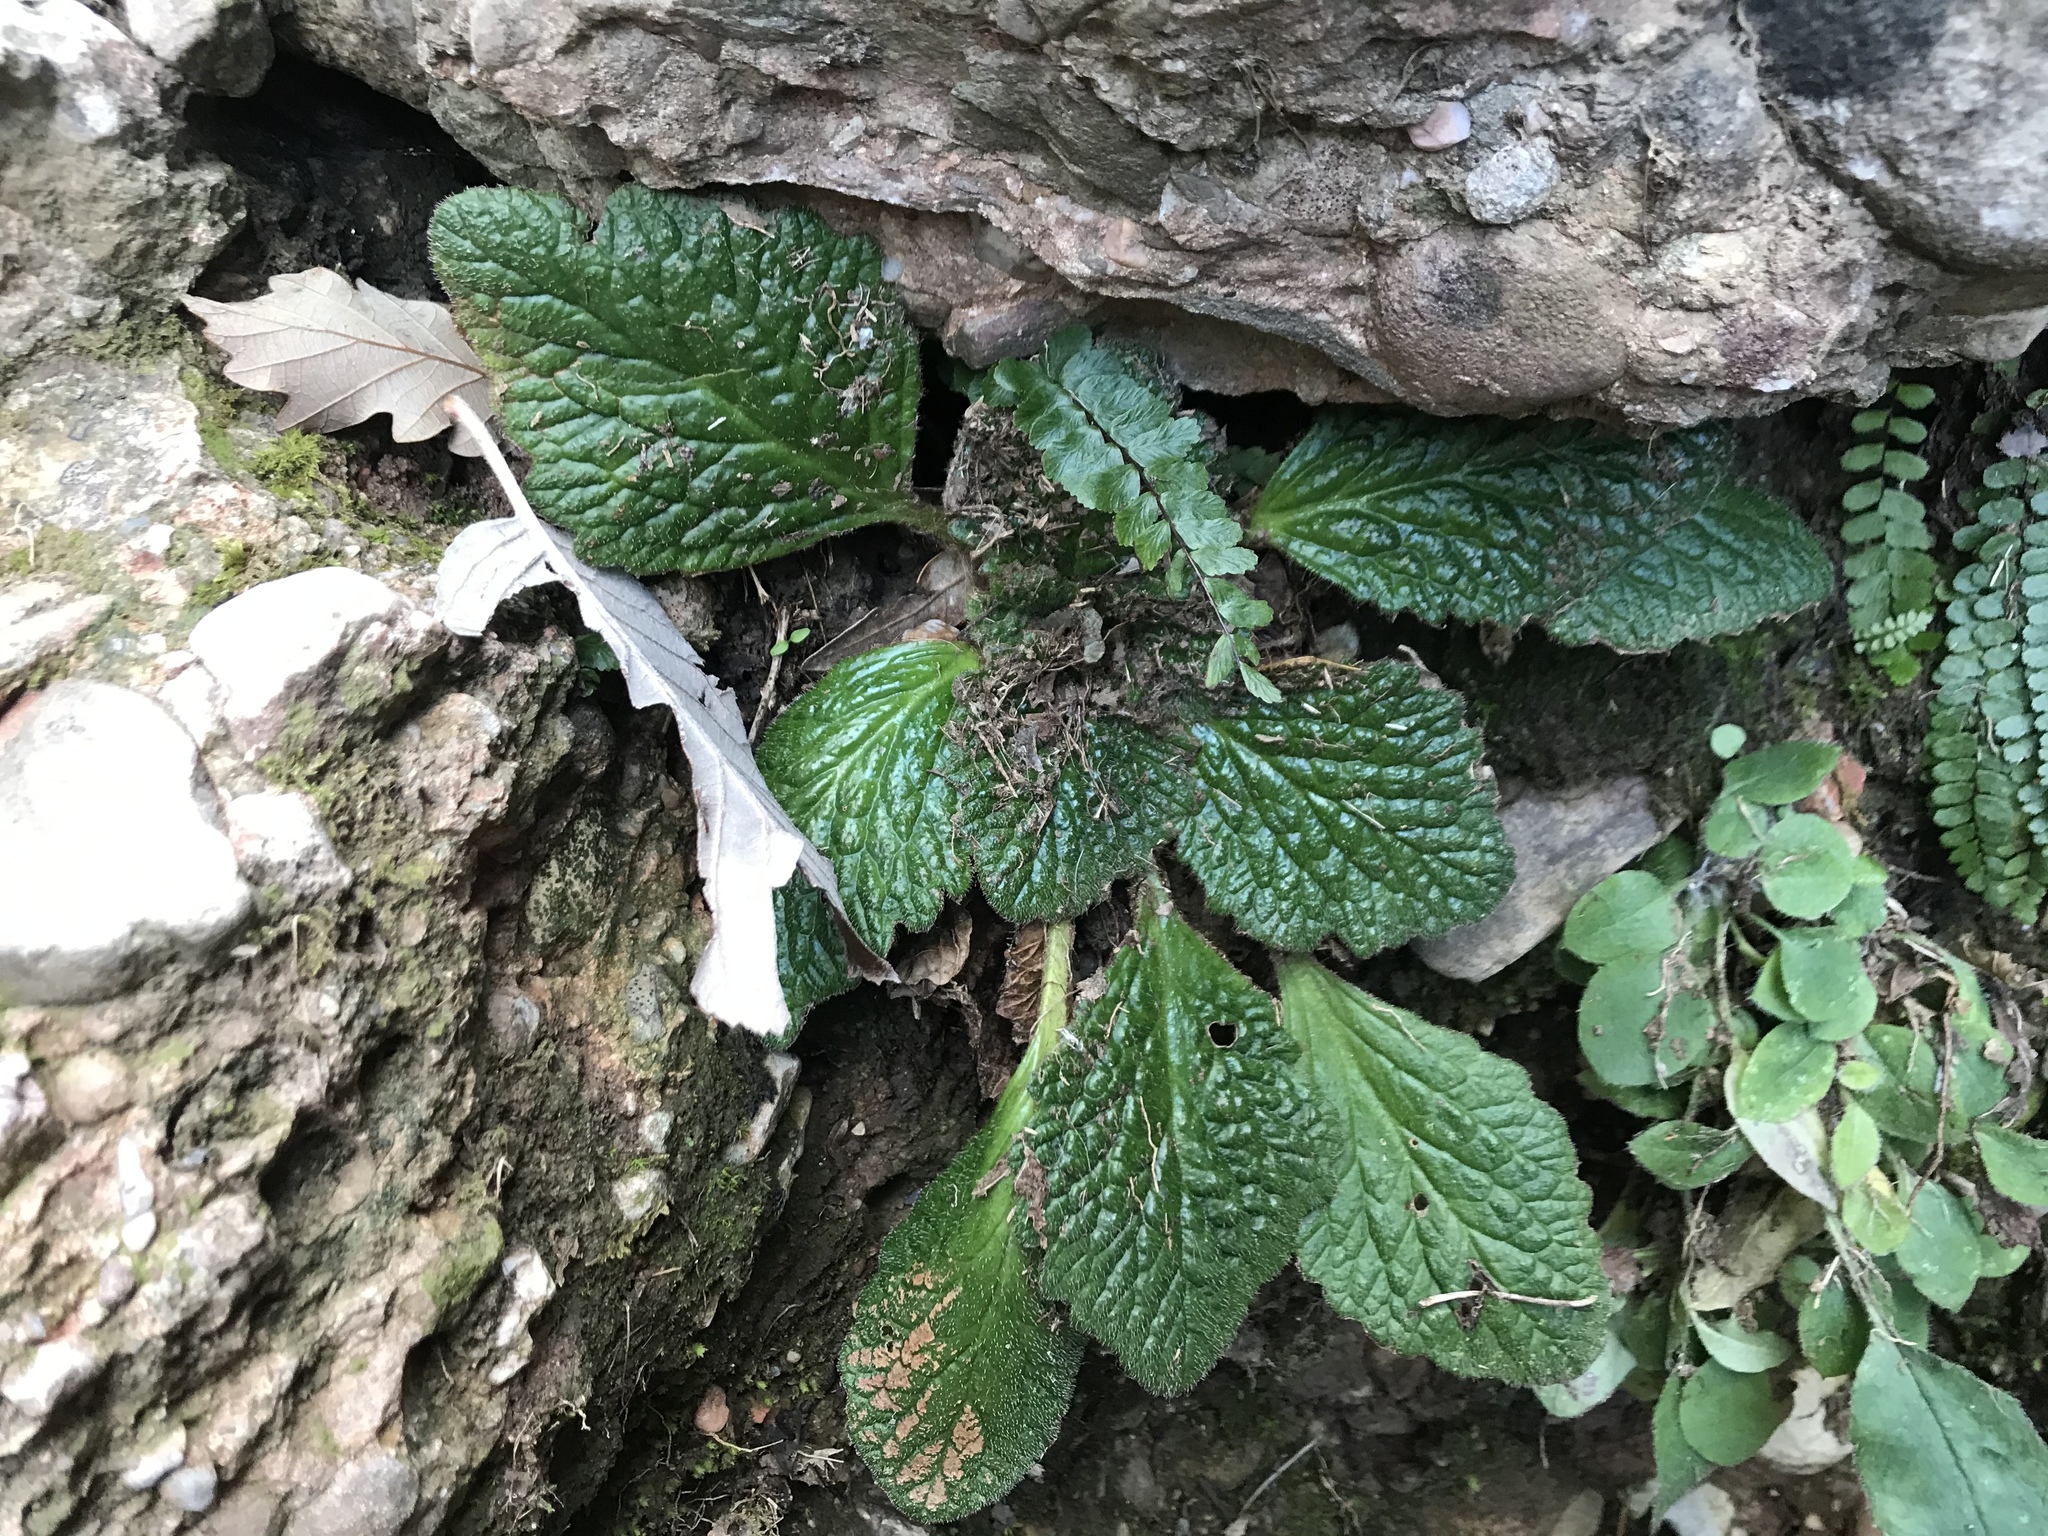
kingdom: Plantae
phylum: Tracheophyta
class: Magnoliopsida
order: Lamiales
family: Gesneriaceae
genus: Ramonda
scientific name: Ramonda myconi
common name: Pyrenean-violet
